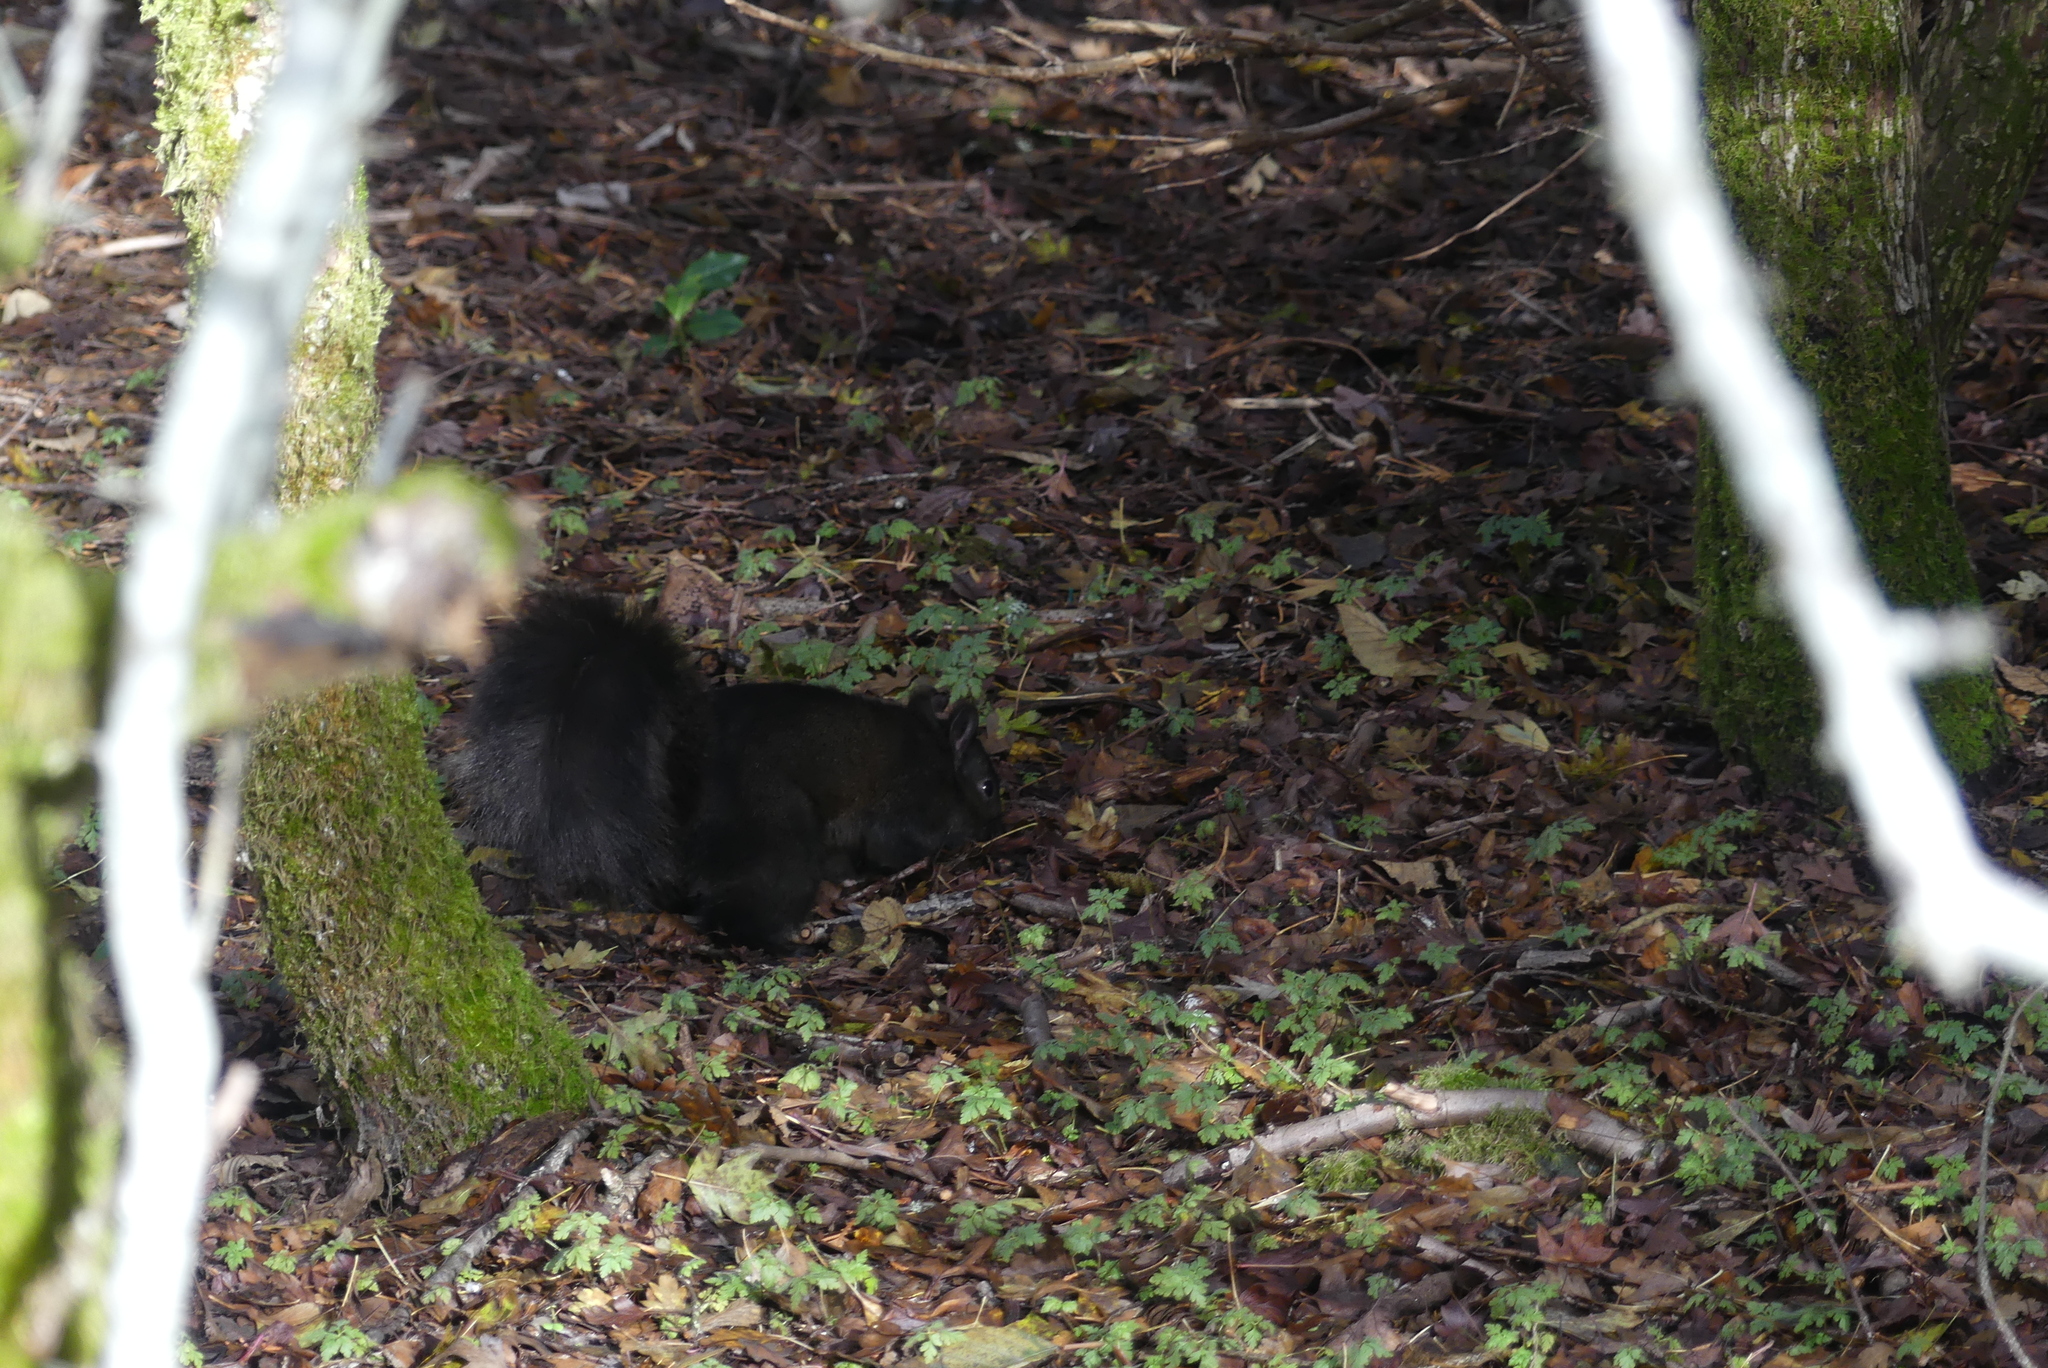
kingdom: Animalia
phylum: Chordata
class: Mammalia
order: Rodentia
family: Sciuridae
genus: Sciurus
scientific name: Sciurus carolinensis
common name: Eastern gray squirrel
